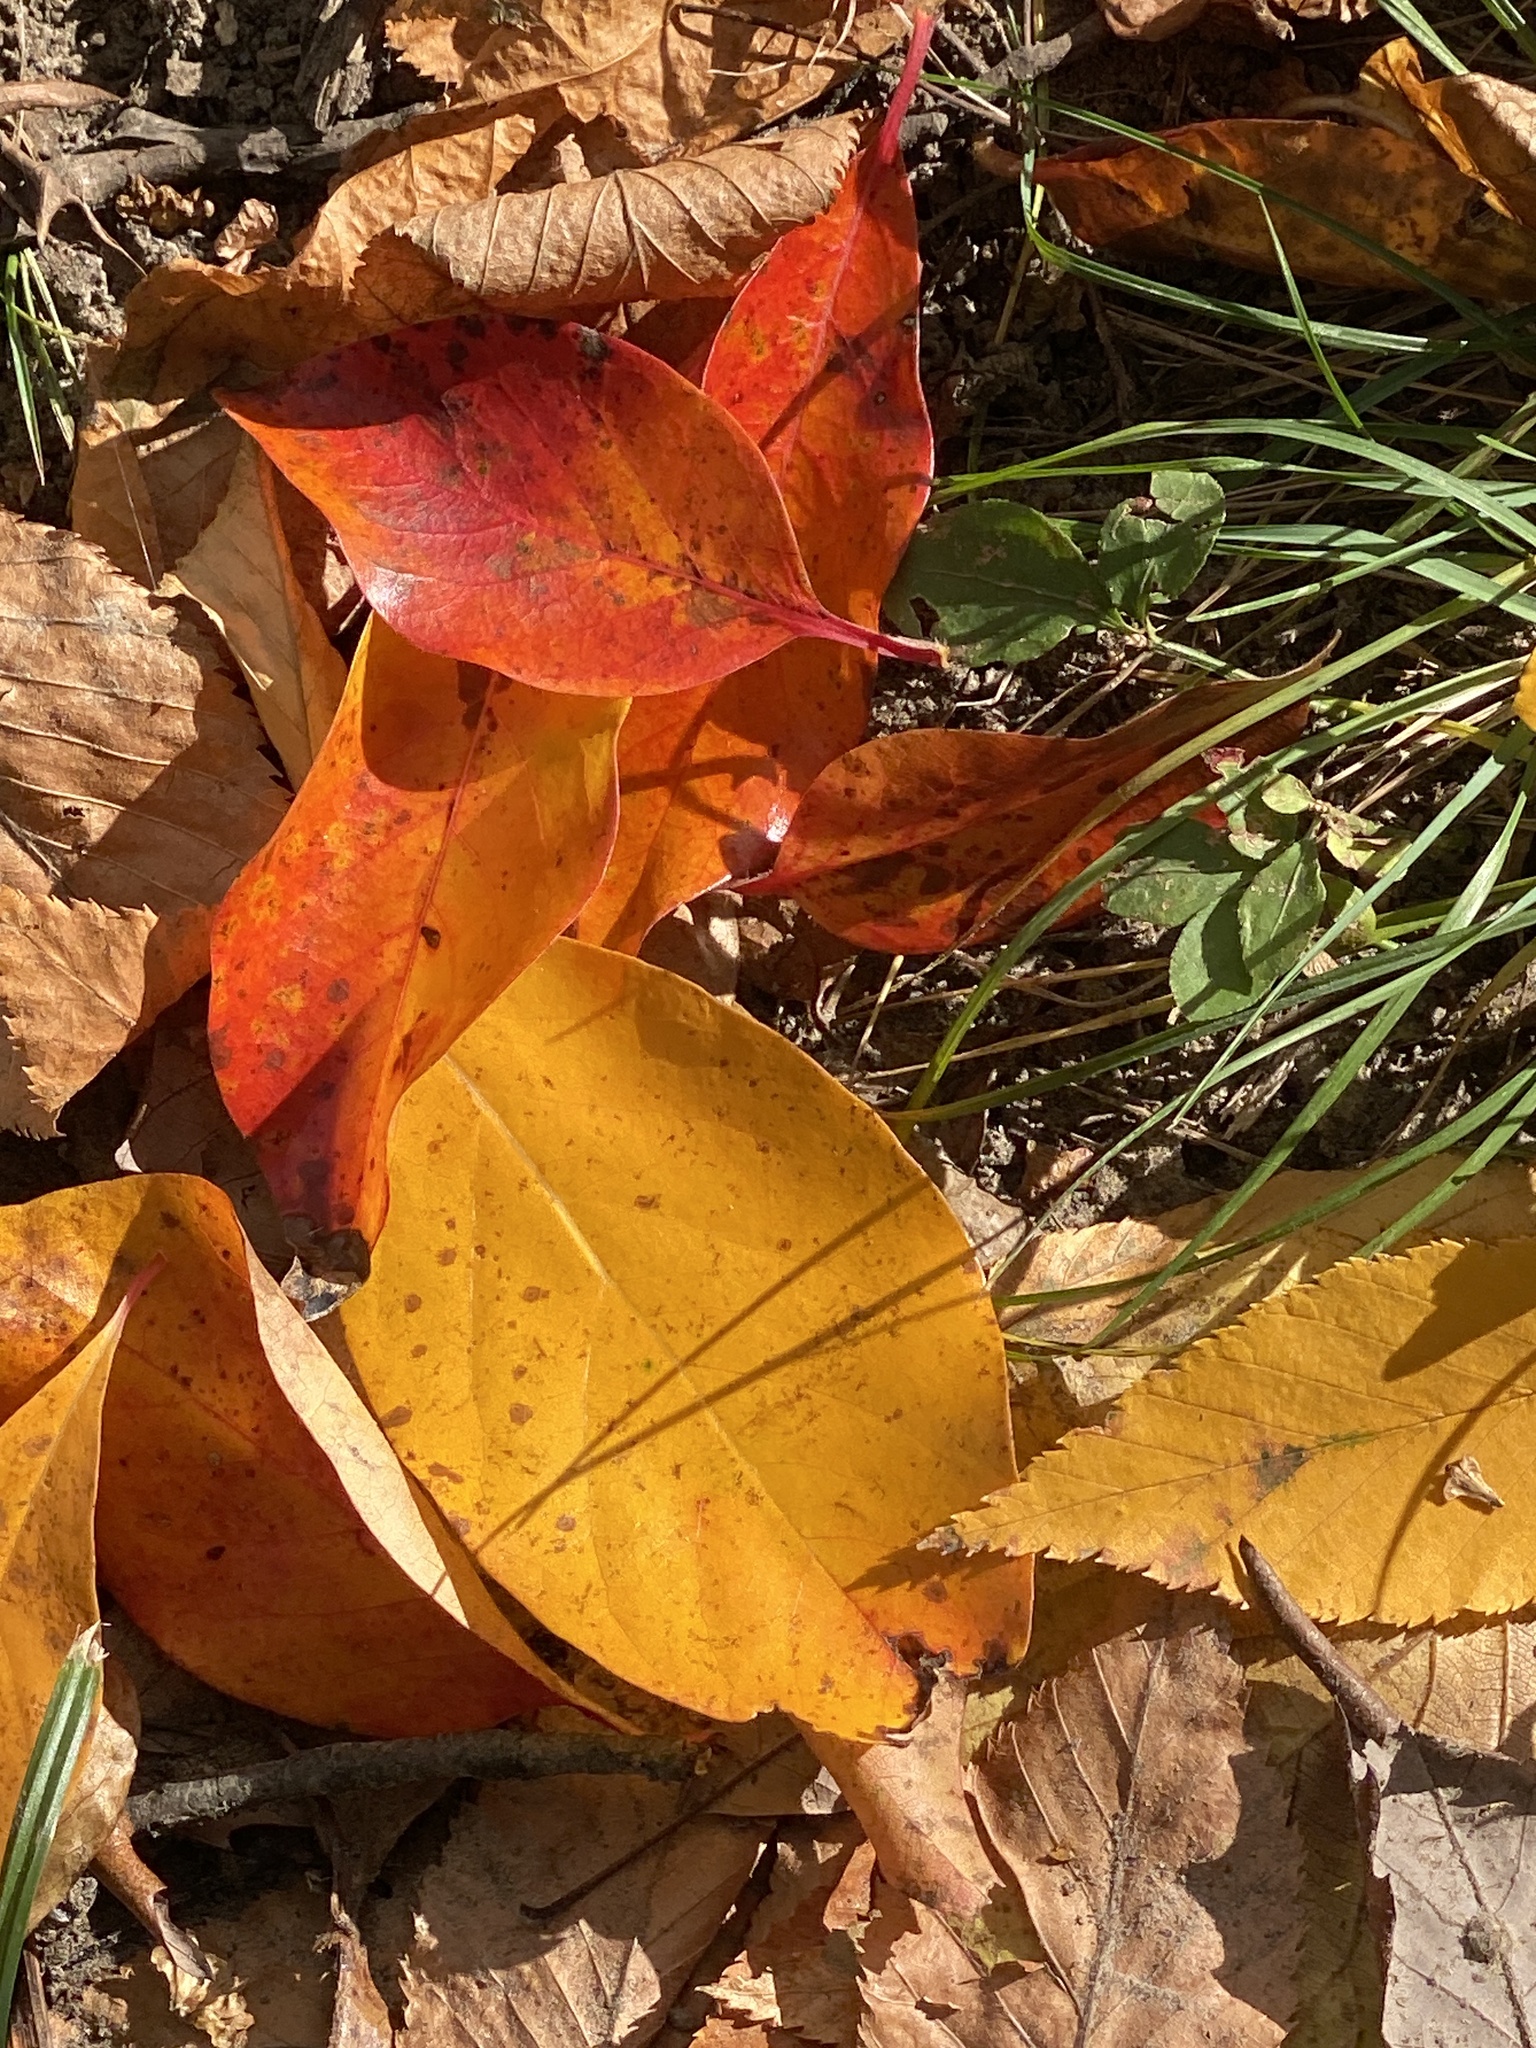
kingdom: Plantae
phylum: Tracheophyta
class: Magnoliopsida
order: Cornales
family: Nyssaceae
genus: Nyssa
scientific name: Nyssa sylvatica
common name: Black tupelo
